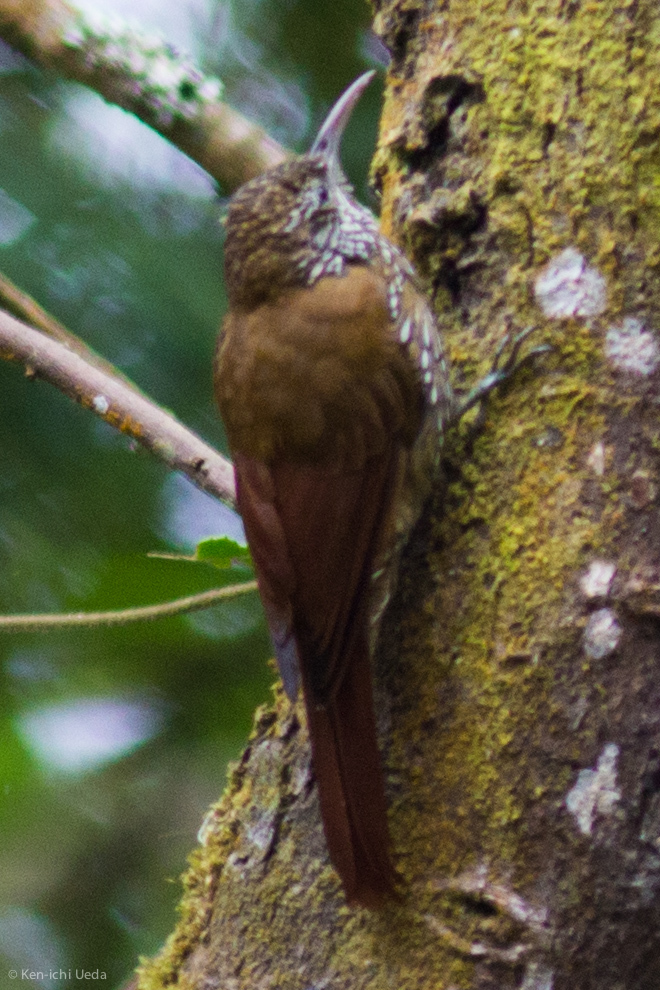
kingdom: Animalia
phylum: Chordata
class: Aves
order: Passeriformes
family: Furnariidae
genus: Lepidocolaptes
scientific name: Lepidocolaptes lacrymiger
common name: Montane woodcreeper
